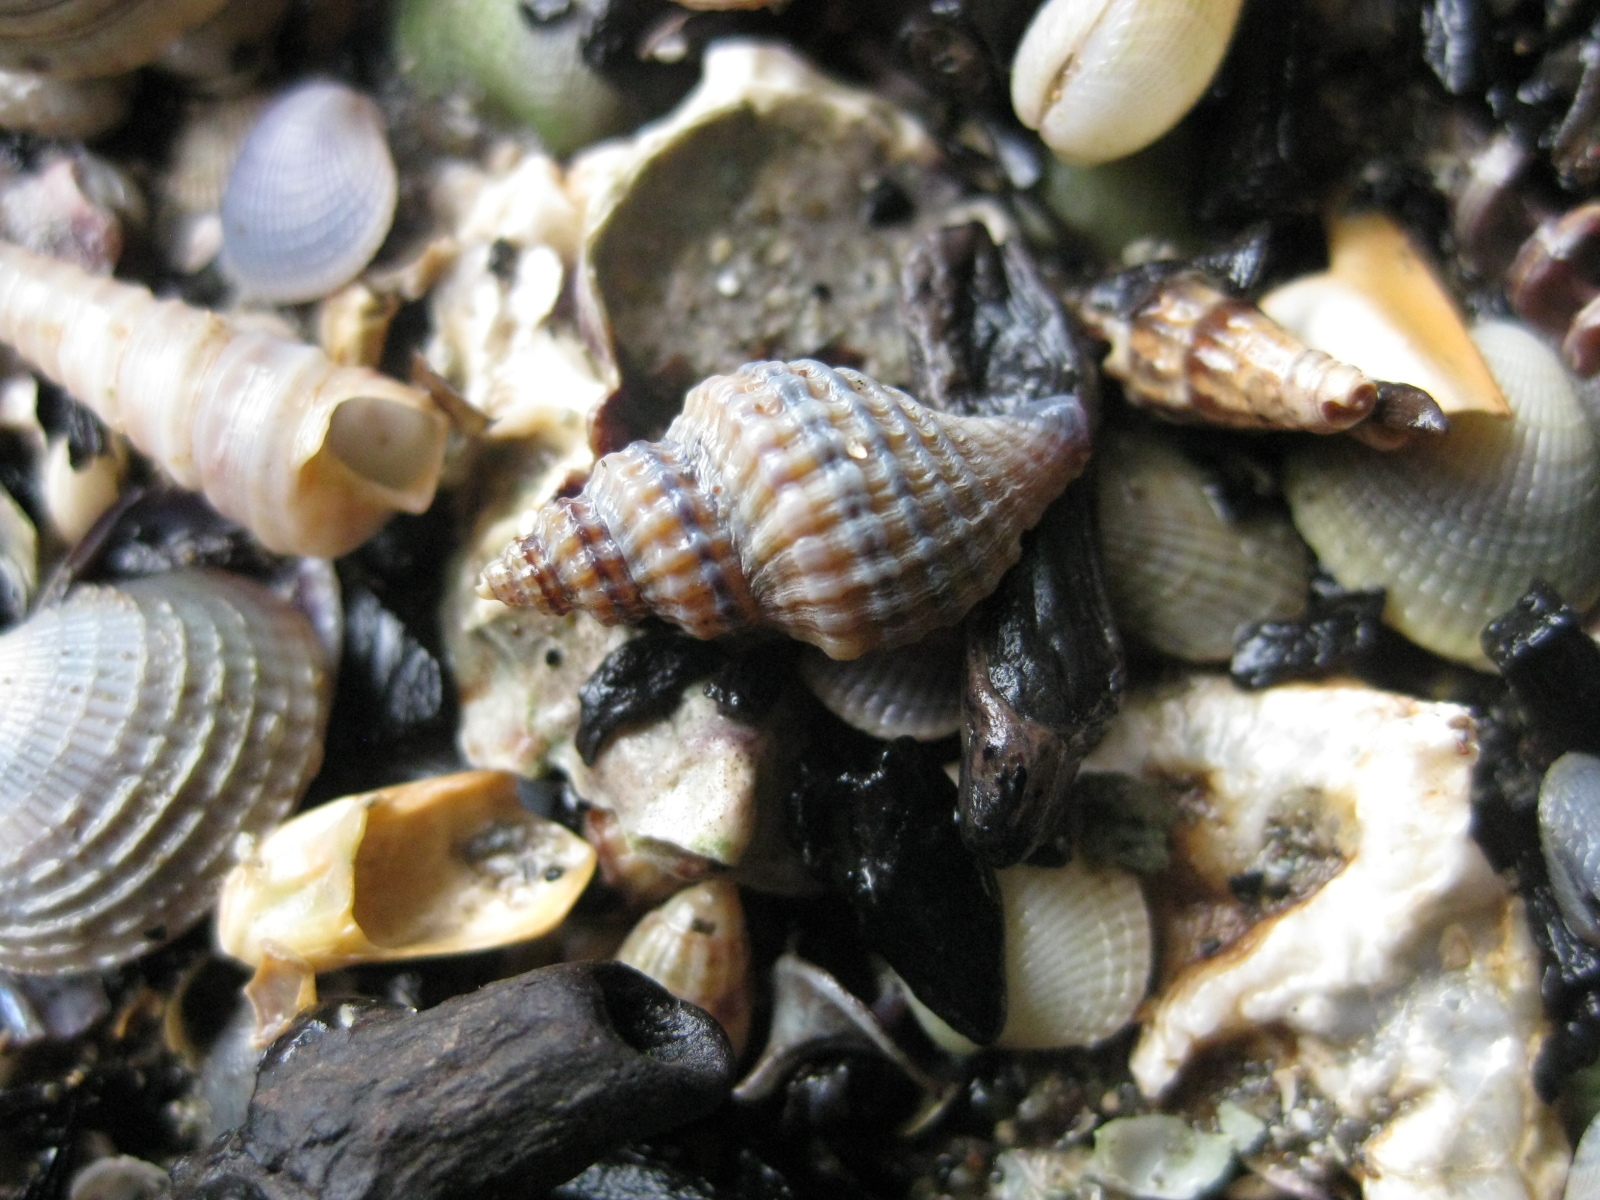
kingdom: Animalia
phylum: Mollusca
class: Gastropoda
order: Neogastropoda
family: Muricidae
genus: Xymene
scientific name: Xymene plebeius
